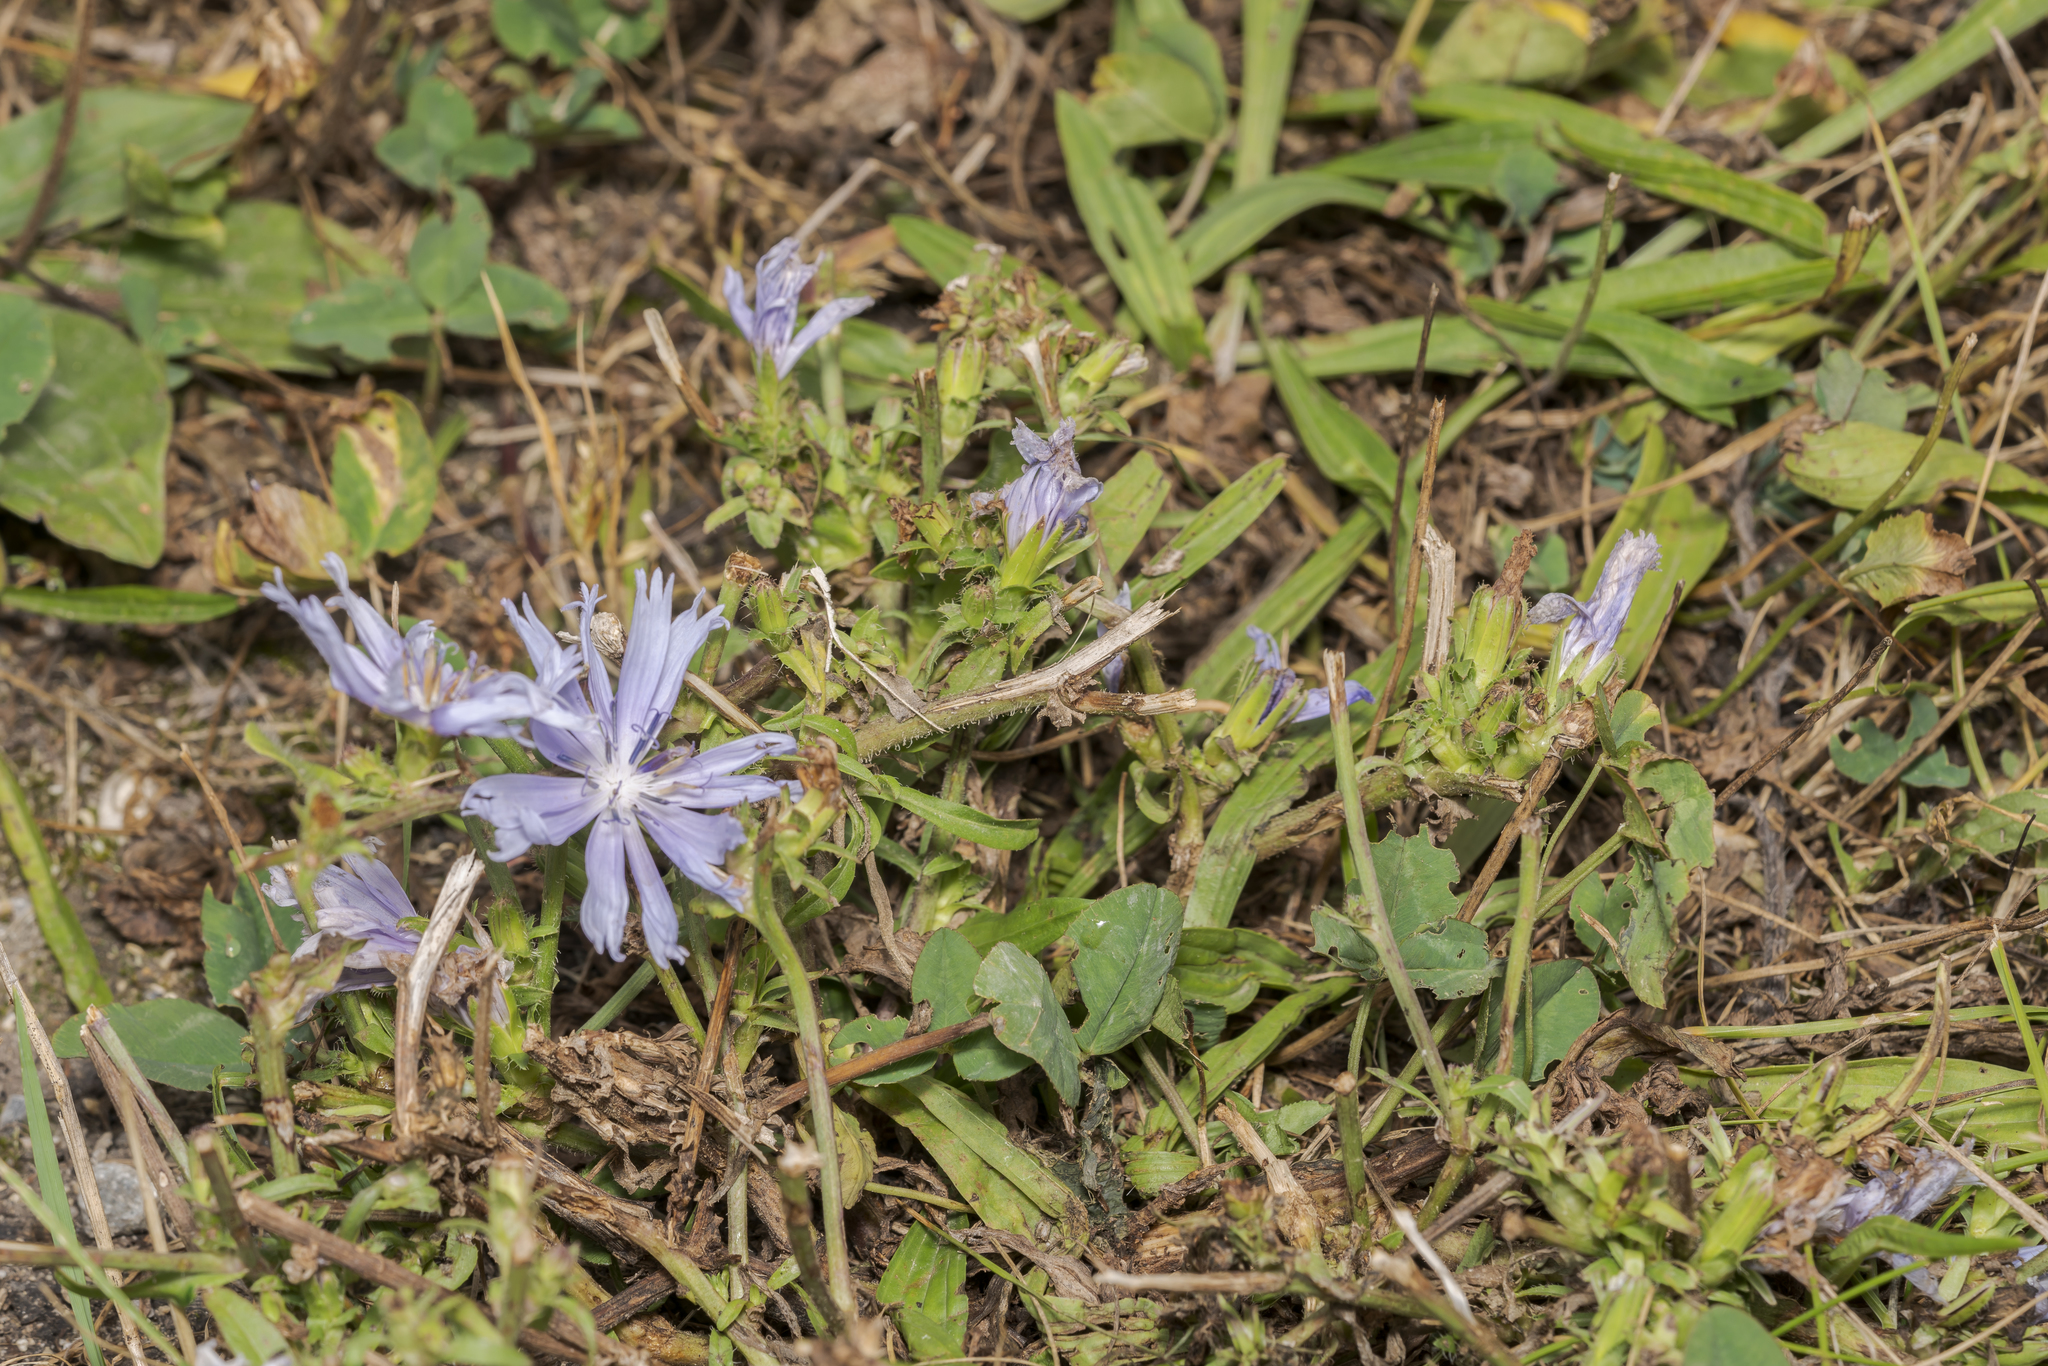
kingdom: Plantae
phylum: Tracheophyta
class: Magnoliopsida
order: Asterales
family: Asteraceae
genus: Cichorium
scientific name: Cichorium intybus
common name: Chicory
